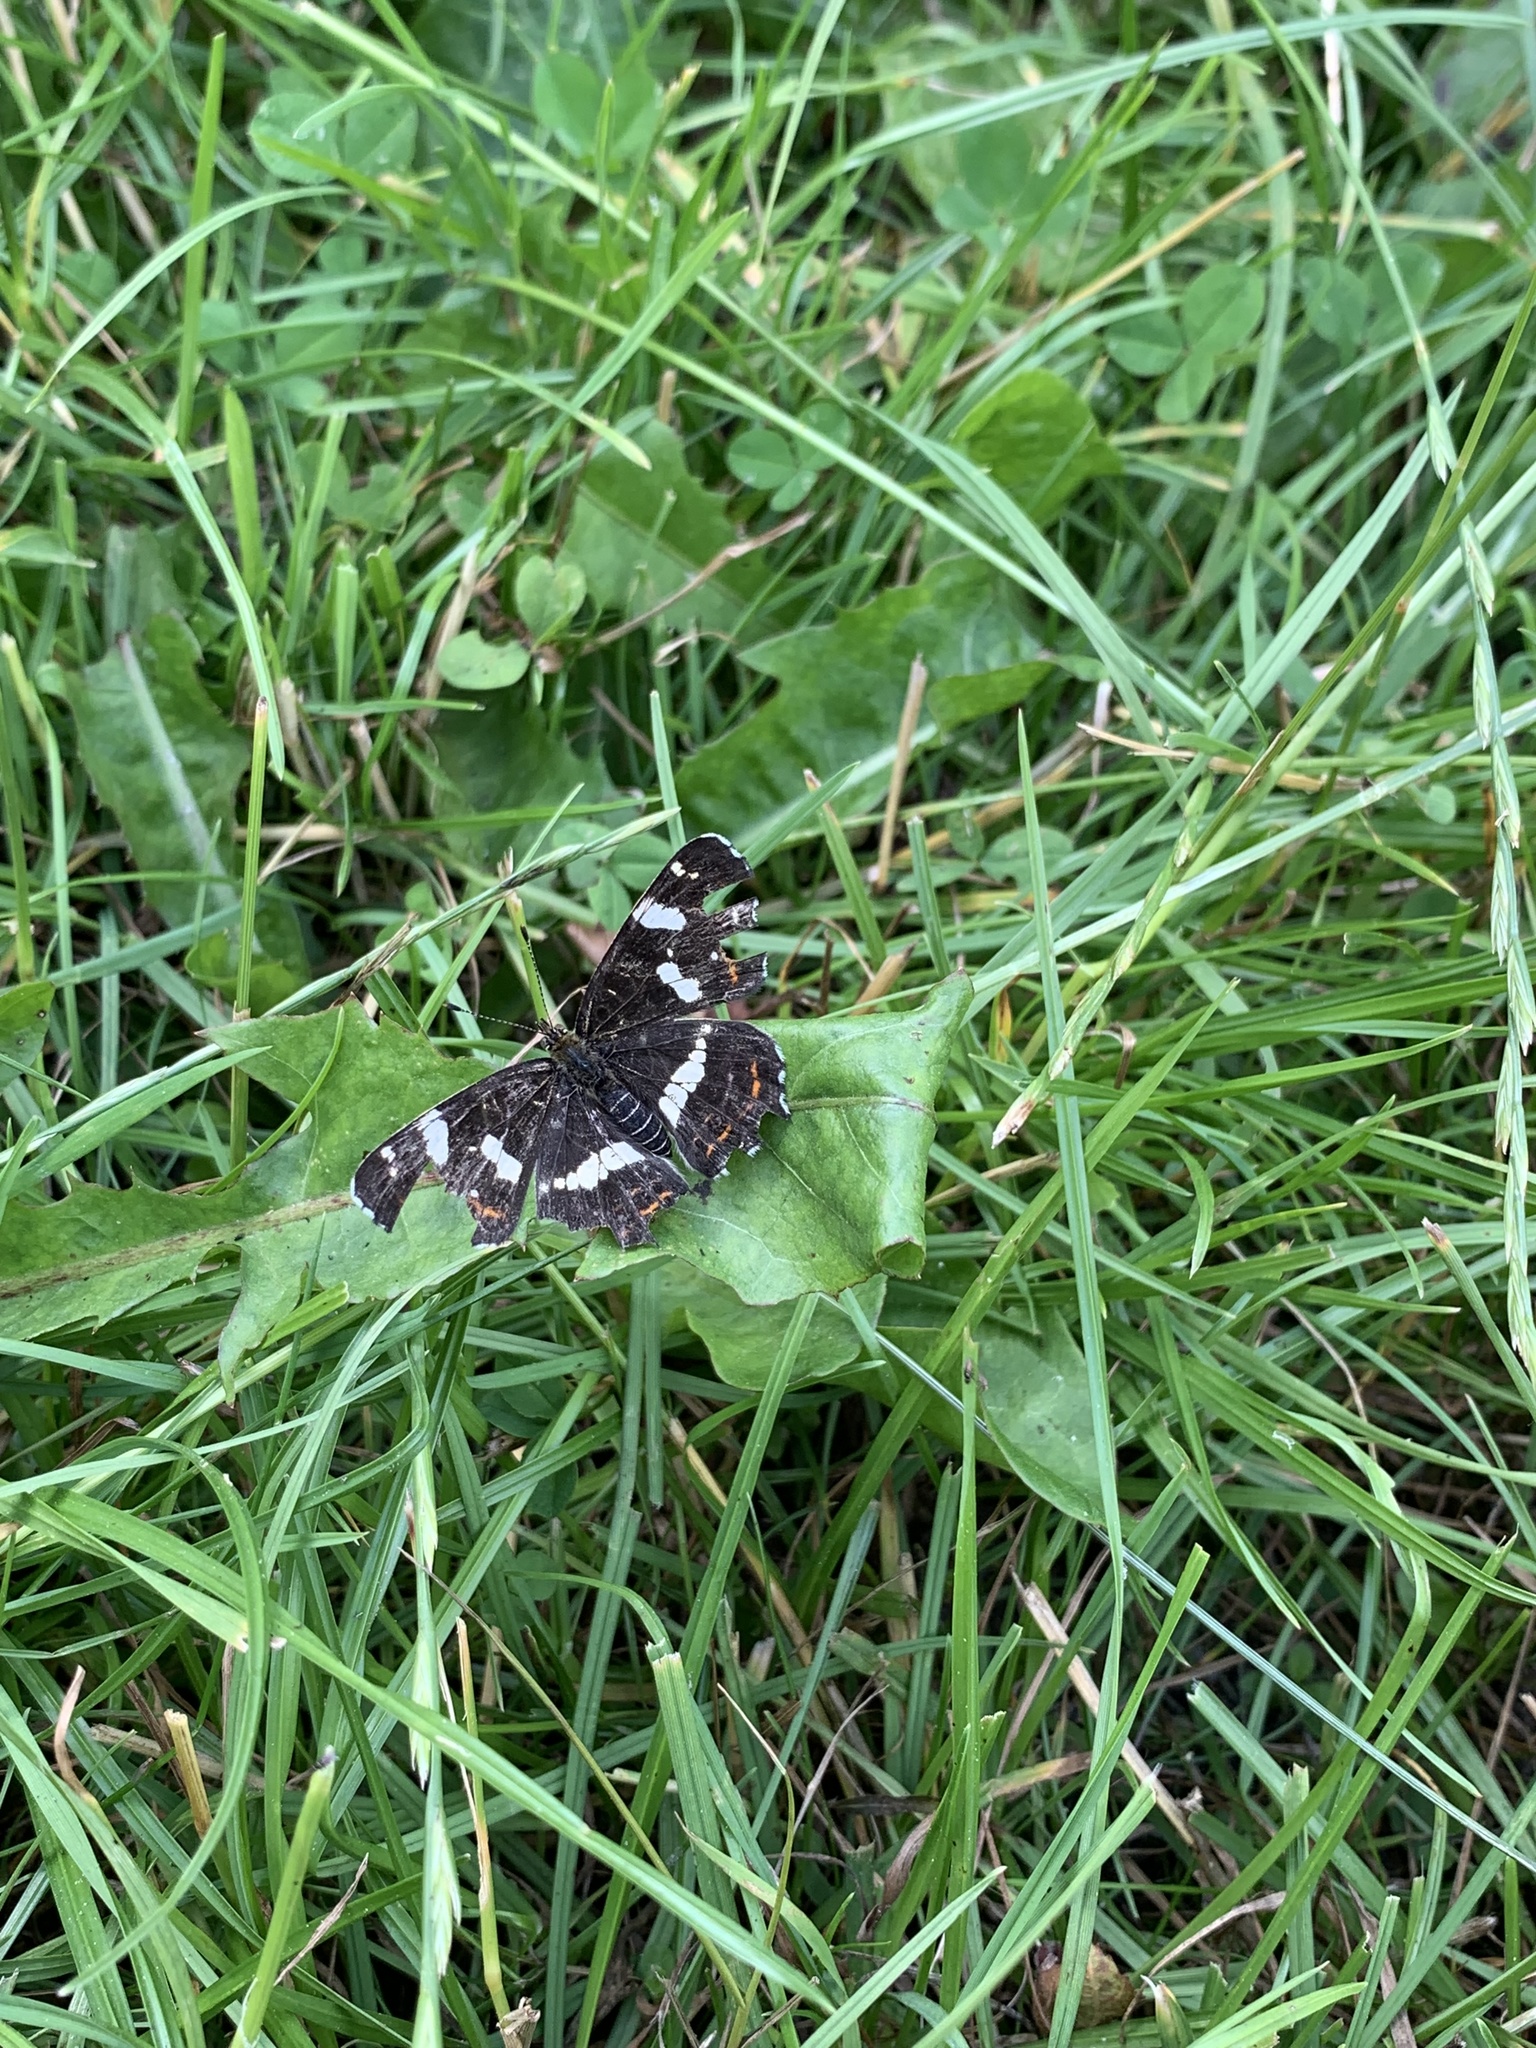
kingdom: Animalia
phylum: Arthropoda
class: Insecta
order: Lepidoptera
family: Nymphalidae
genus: Araschnia
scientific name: Araschnia levana
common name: Map butterfly
